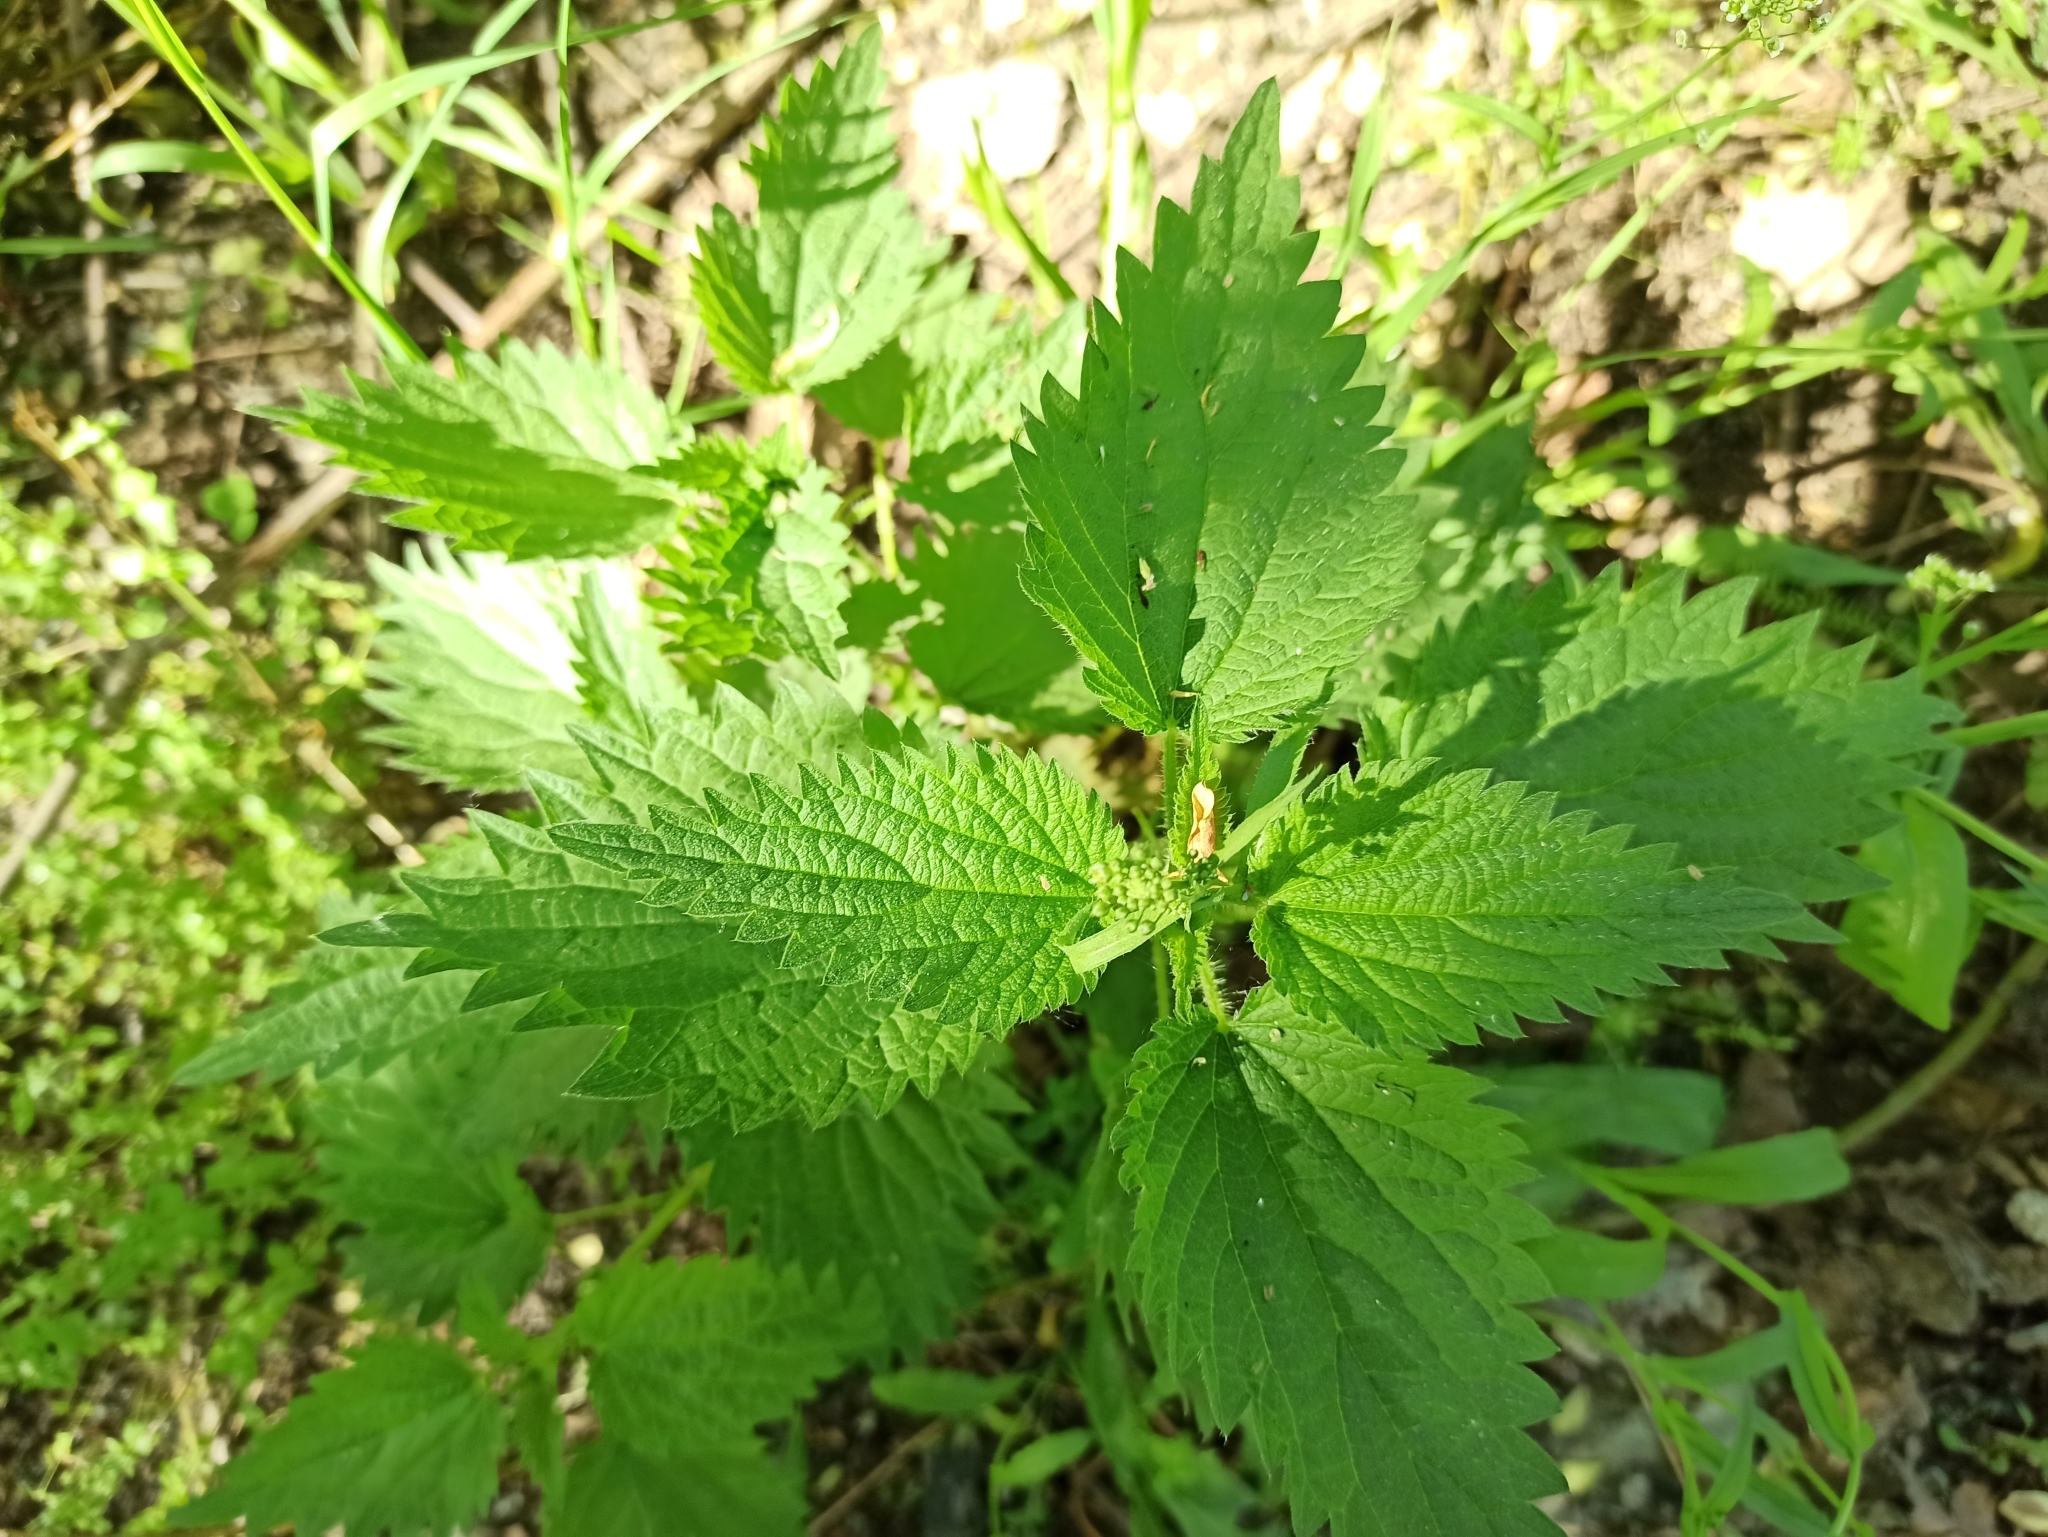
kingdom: Plantae
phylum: Tracheophyta
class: Magnoliopsida
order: Rosales
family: Urticaceae
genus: Urtica
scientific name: Urtica dioica
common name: Common nettle
